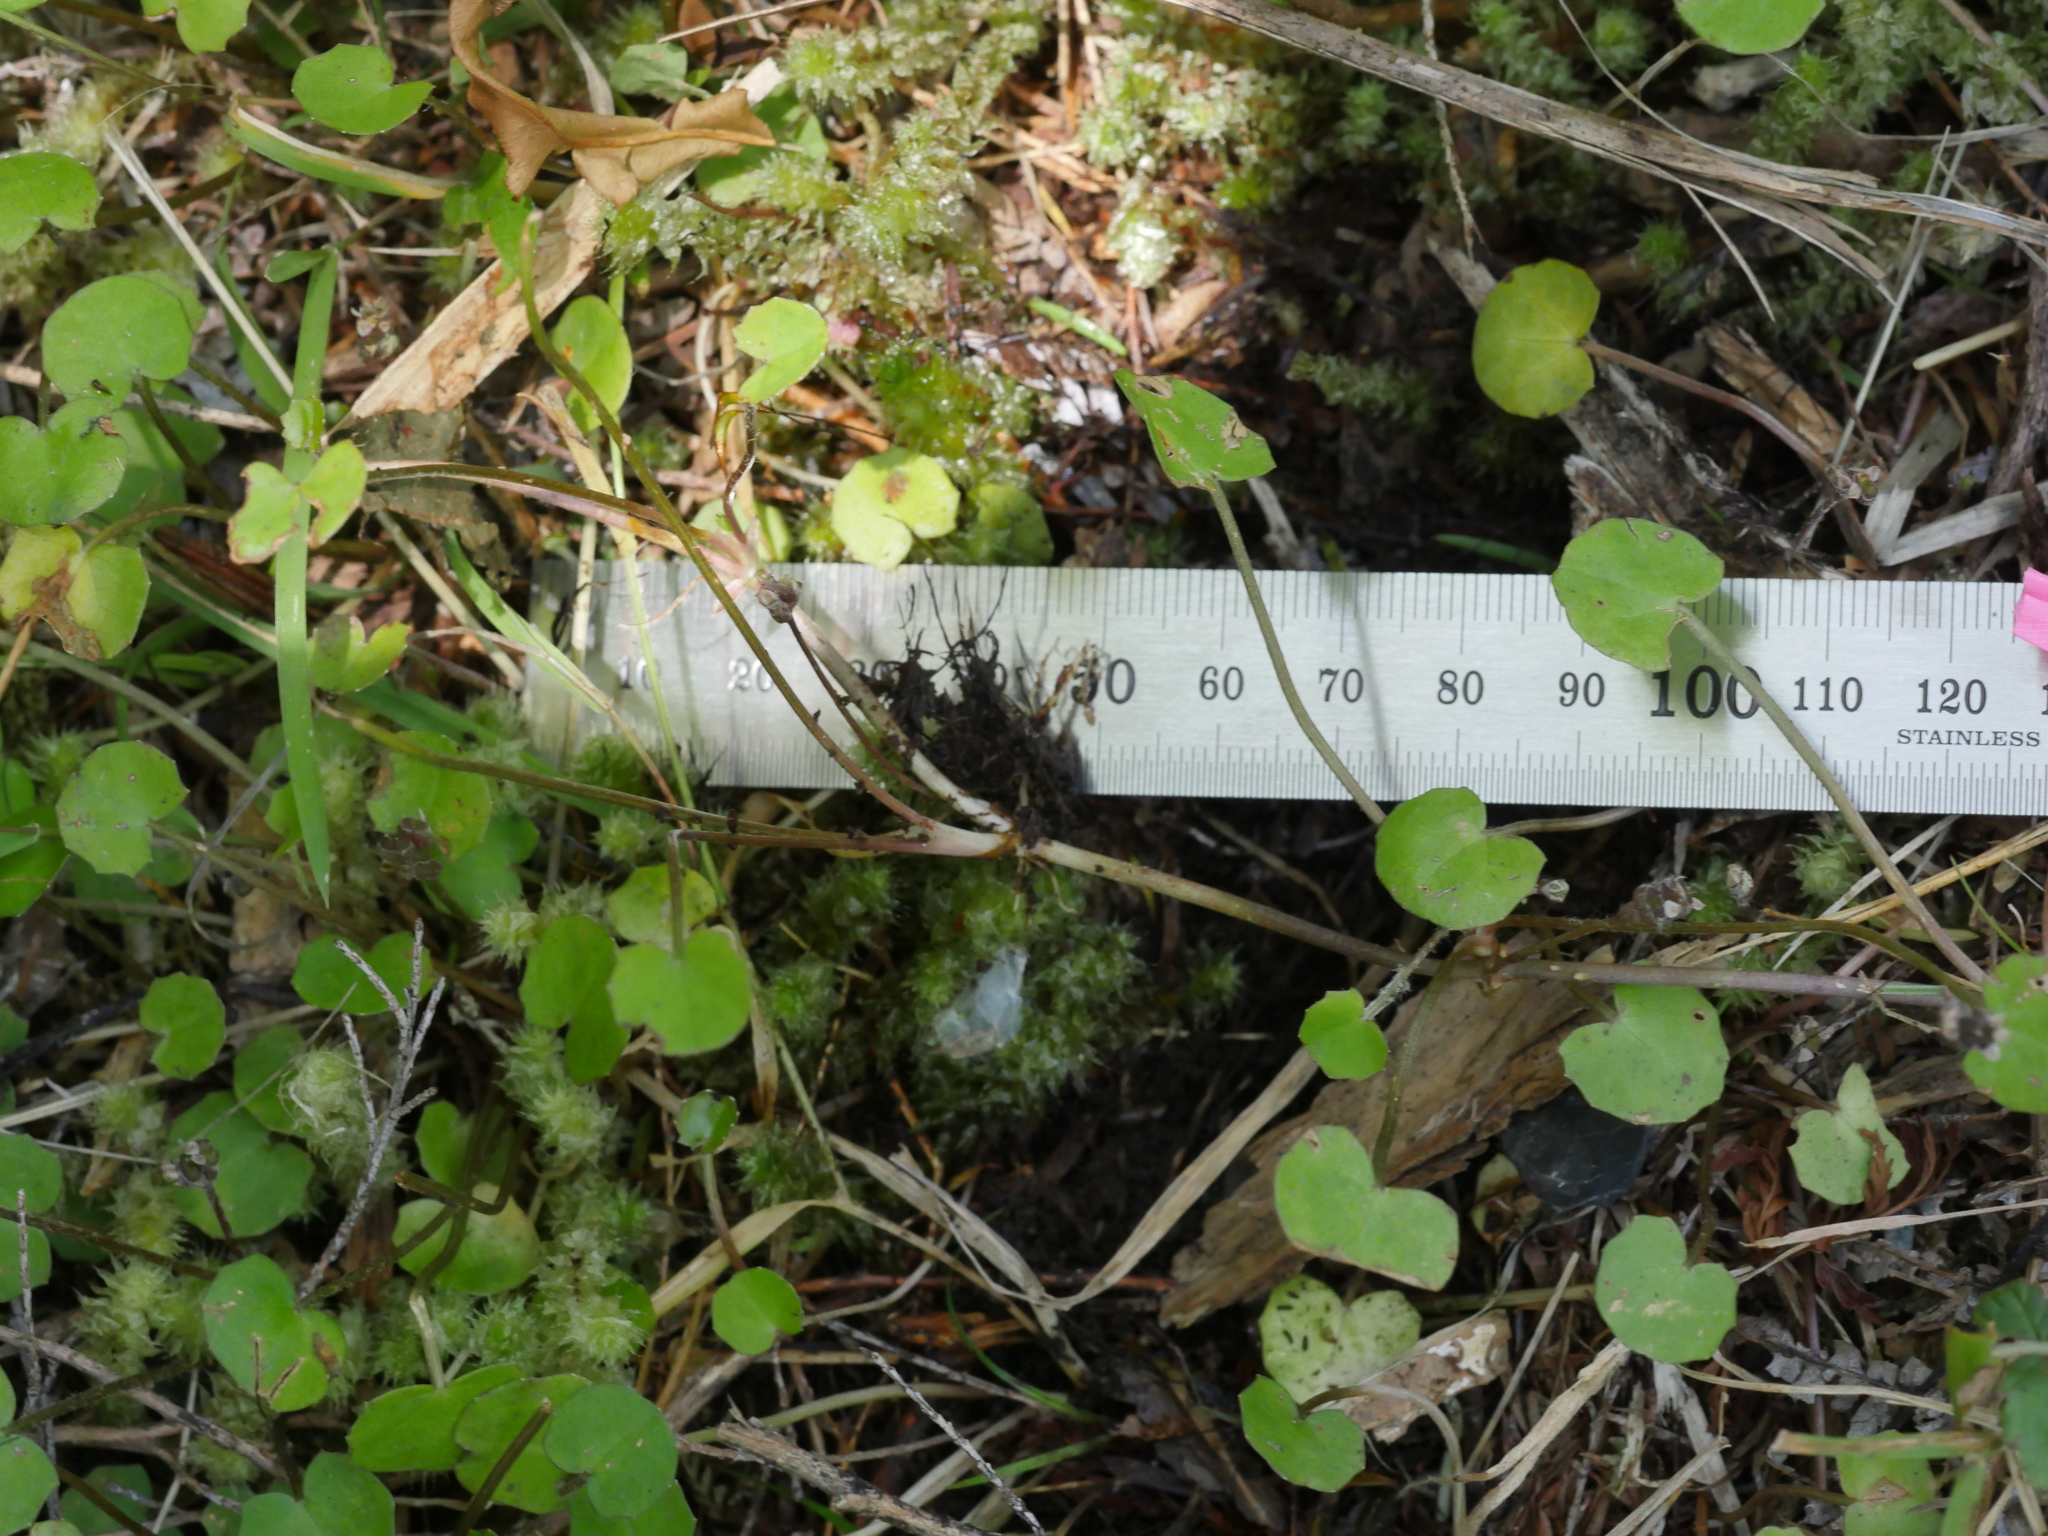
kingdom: Plantae
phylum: Tracheophyta
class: Magnoliopsida
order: Apiales
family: Apiaceae
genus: Centella
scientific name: Centella uniflora
